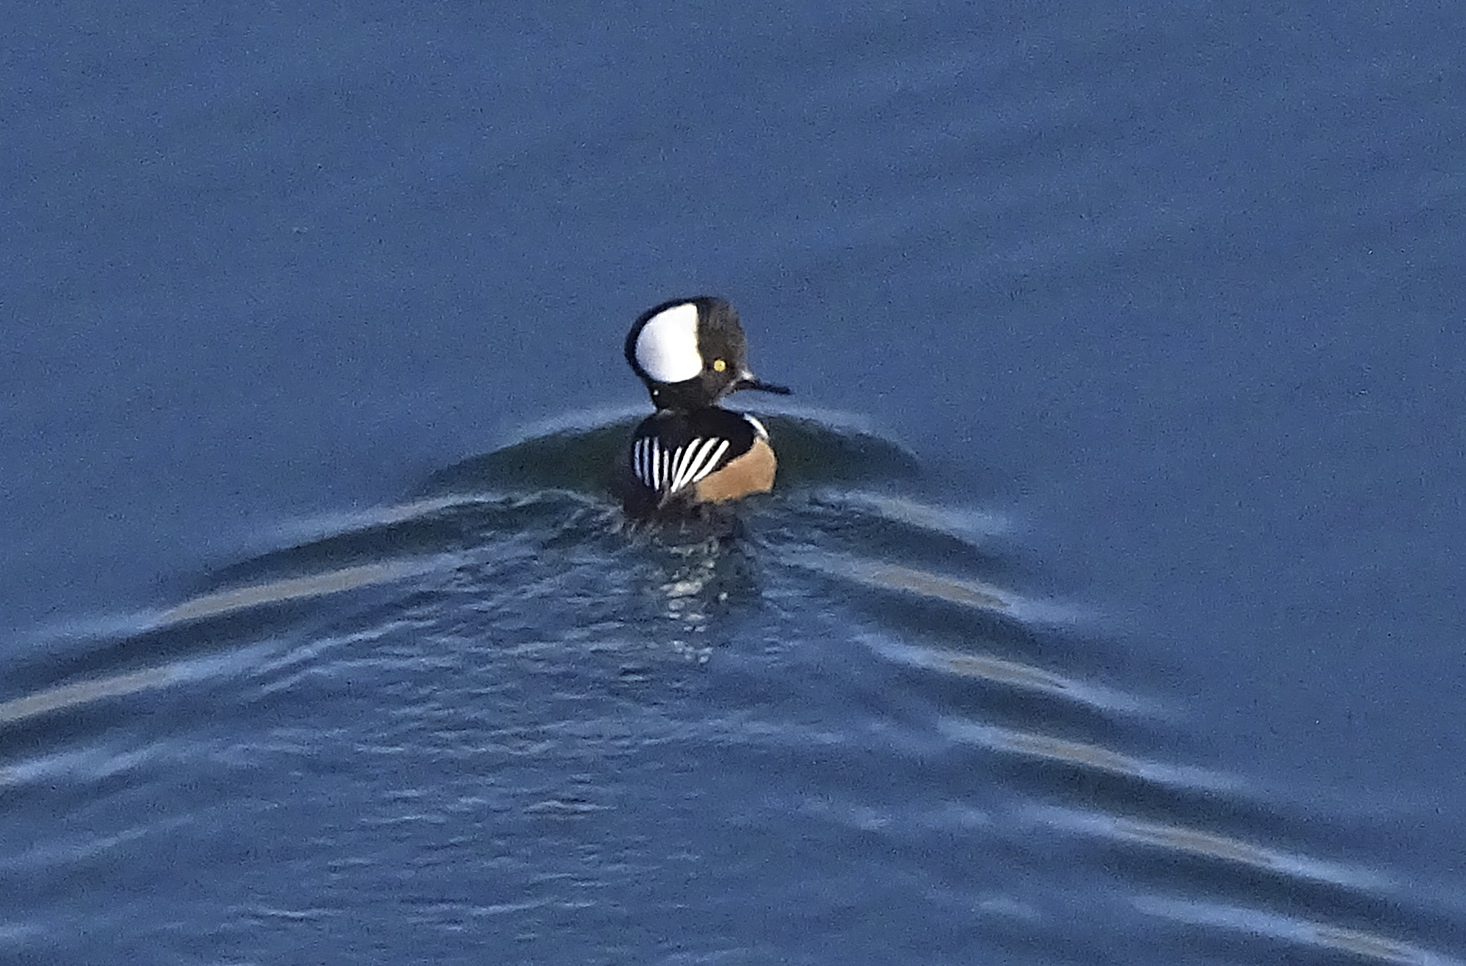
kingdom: Animalia
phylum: Chordata
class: Aves
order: Anseriformes
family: Anatidae
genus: Lophodytes
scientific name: Lophodytes cucullatus
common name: Hooded merganser
